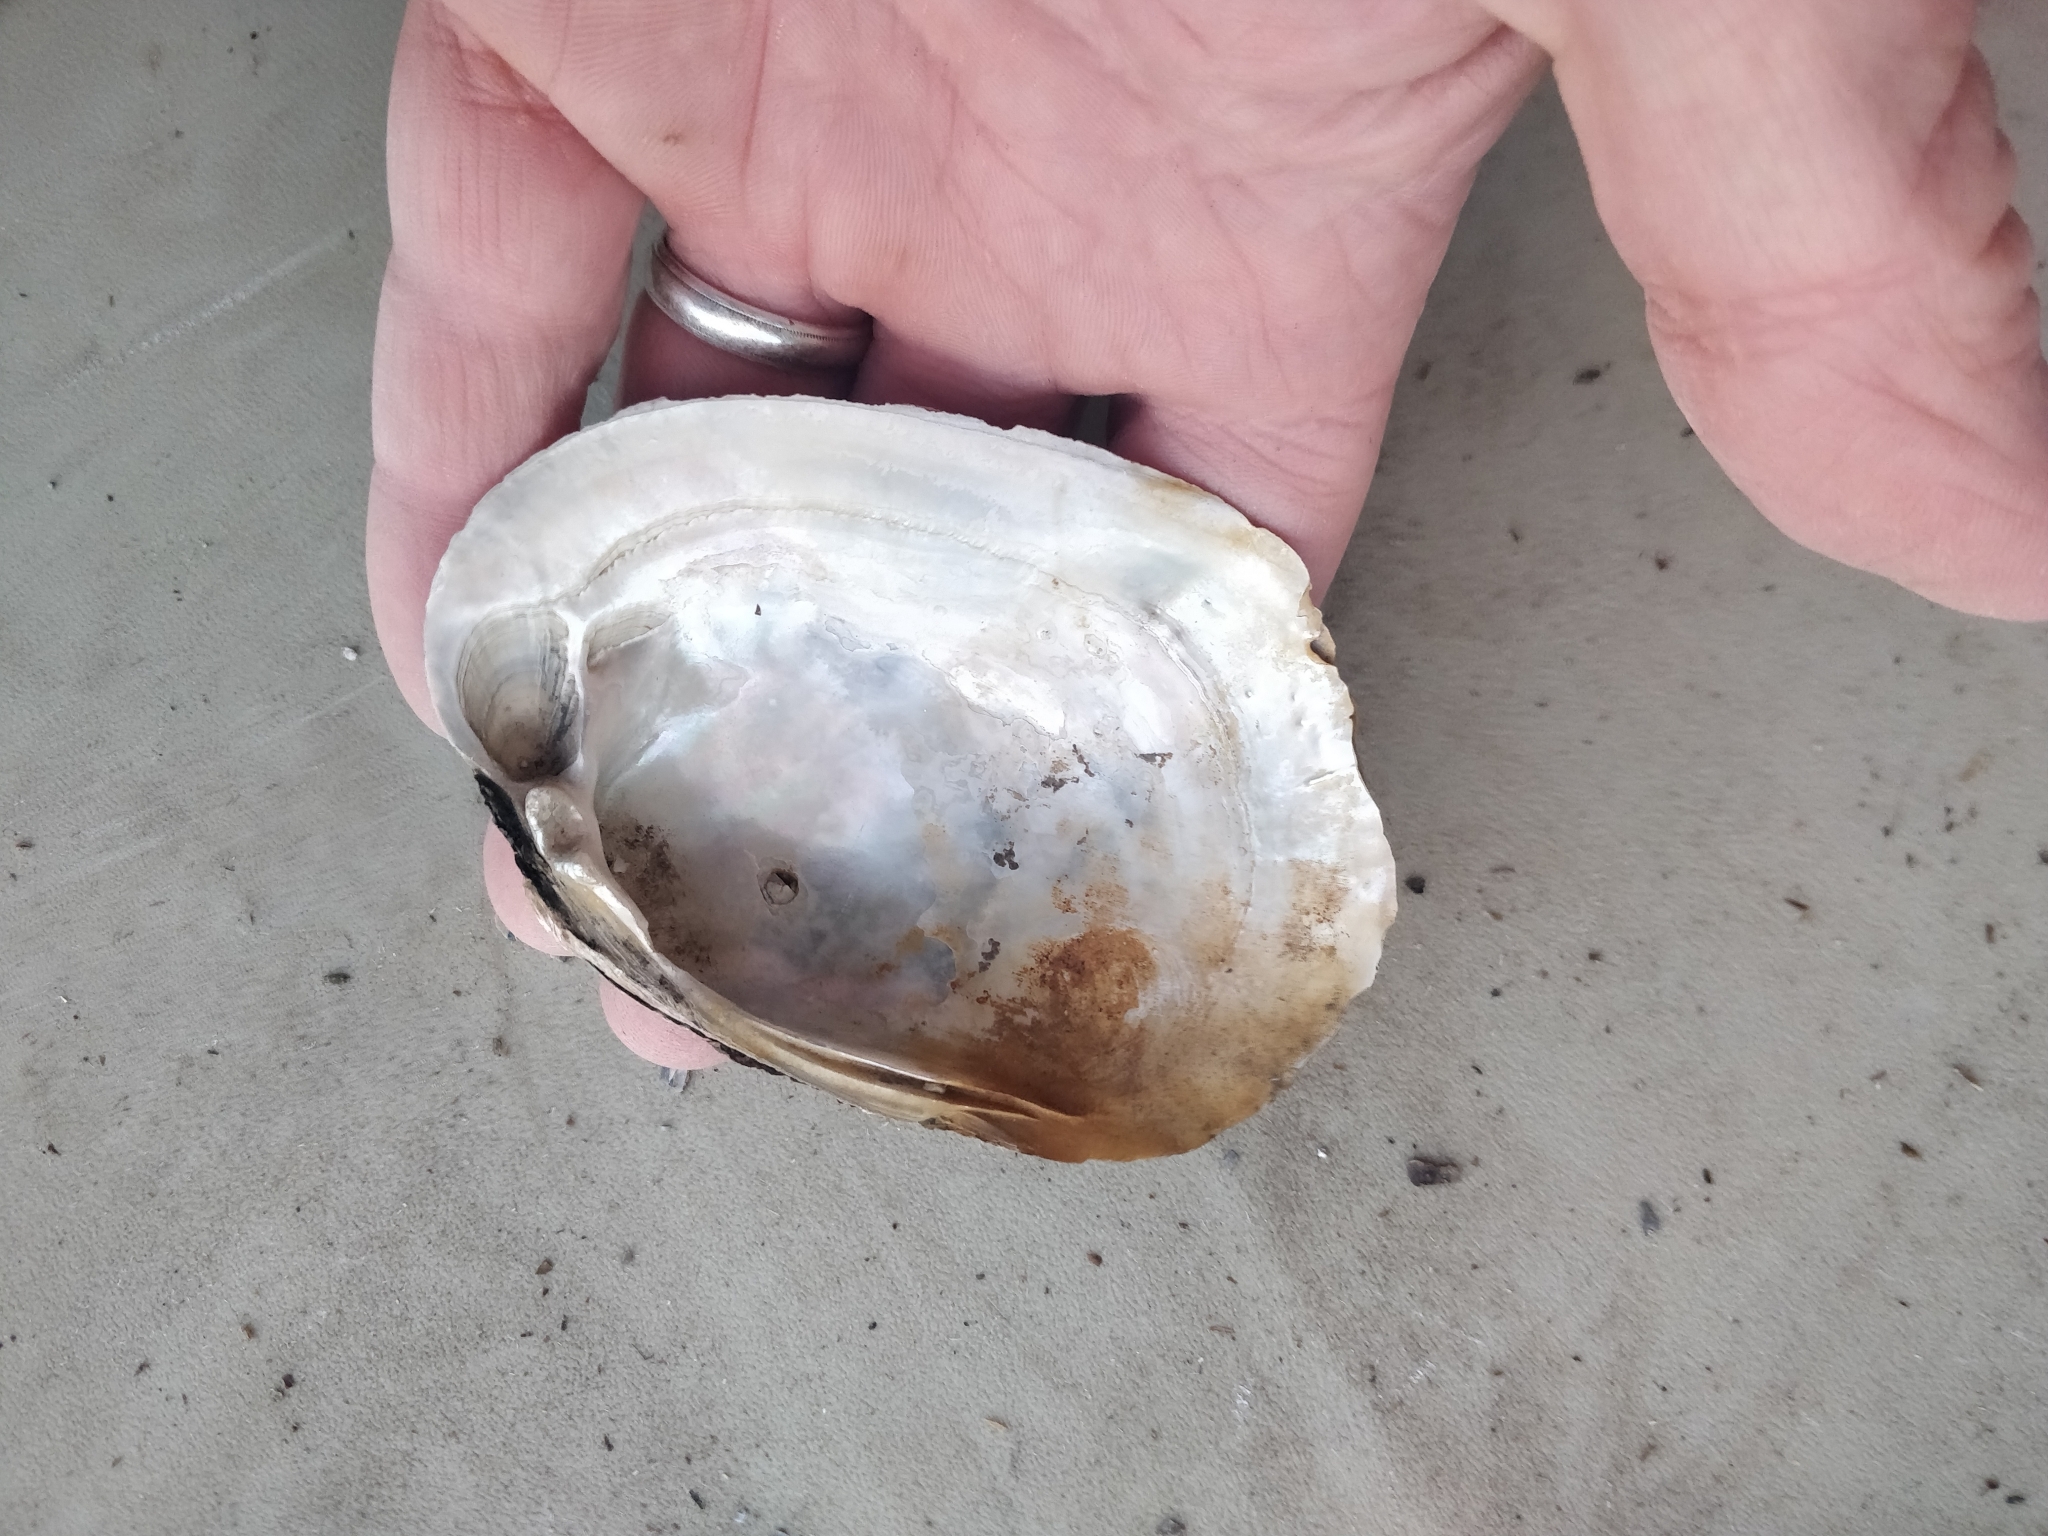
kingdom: Animalia
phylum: Mollusca
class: Bivalvia
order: Unionida
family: Unionidae
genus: Lampsilis
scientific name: Lampsilis cardium
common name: Plain pocketbook
